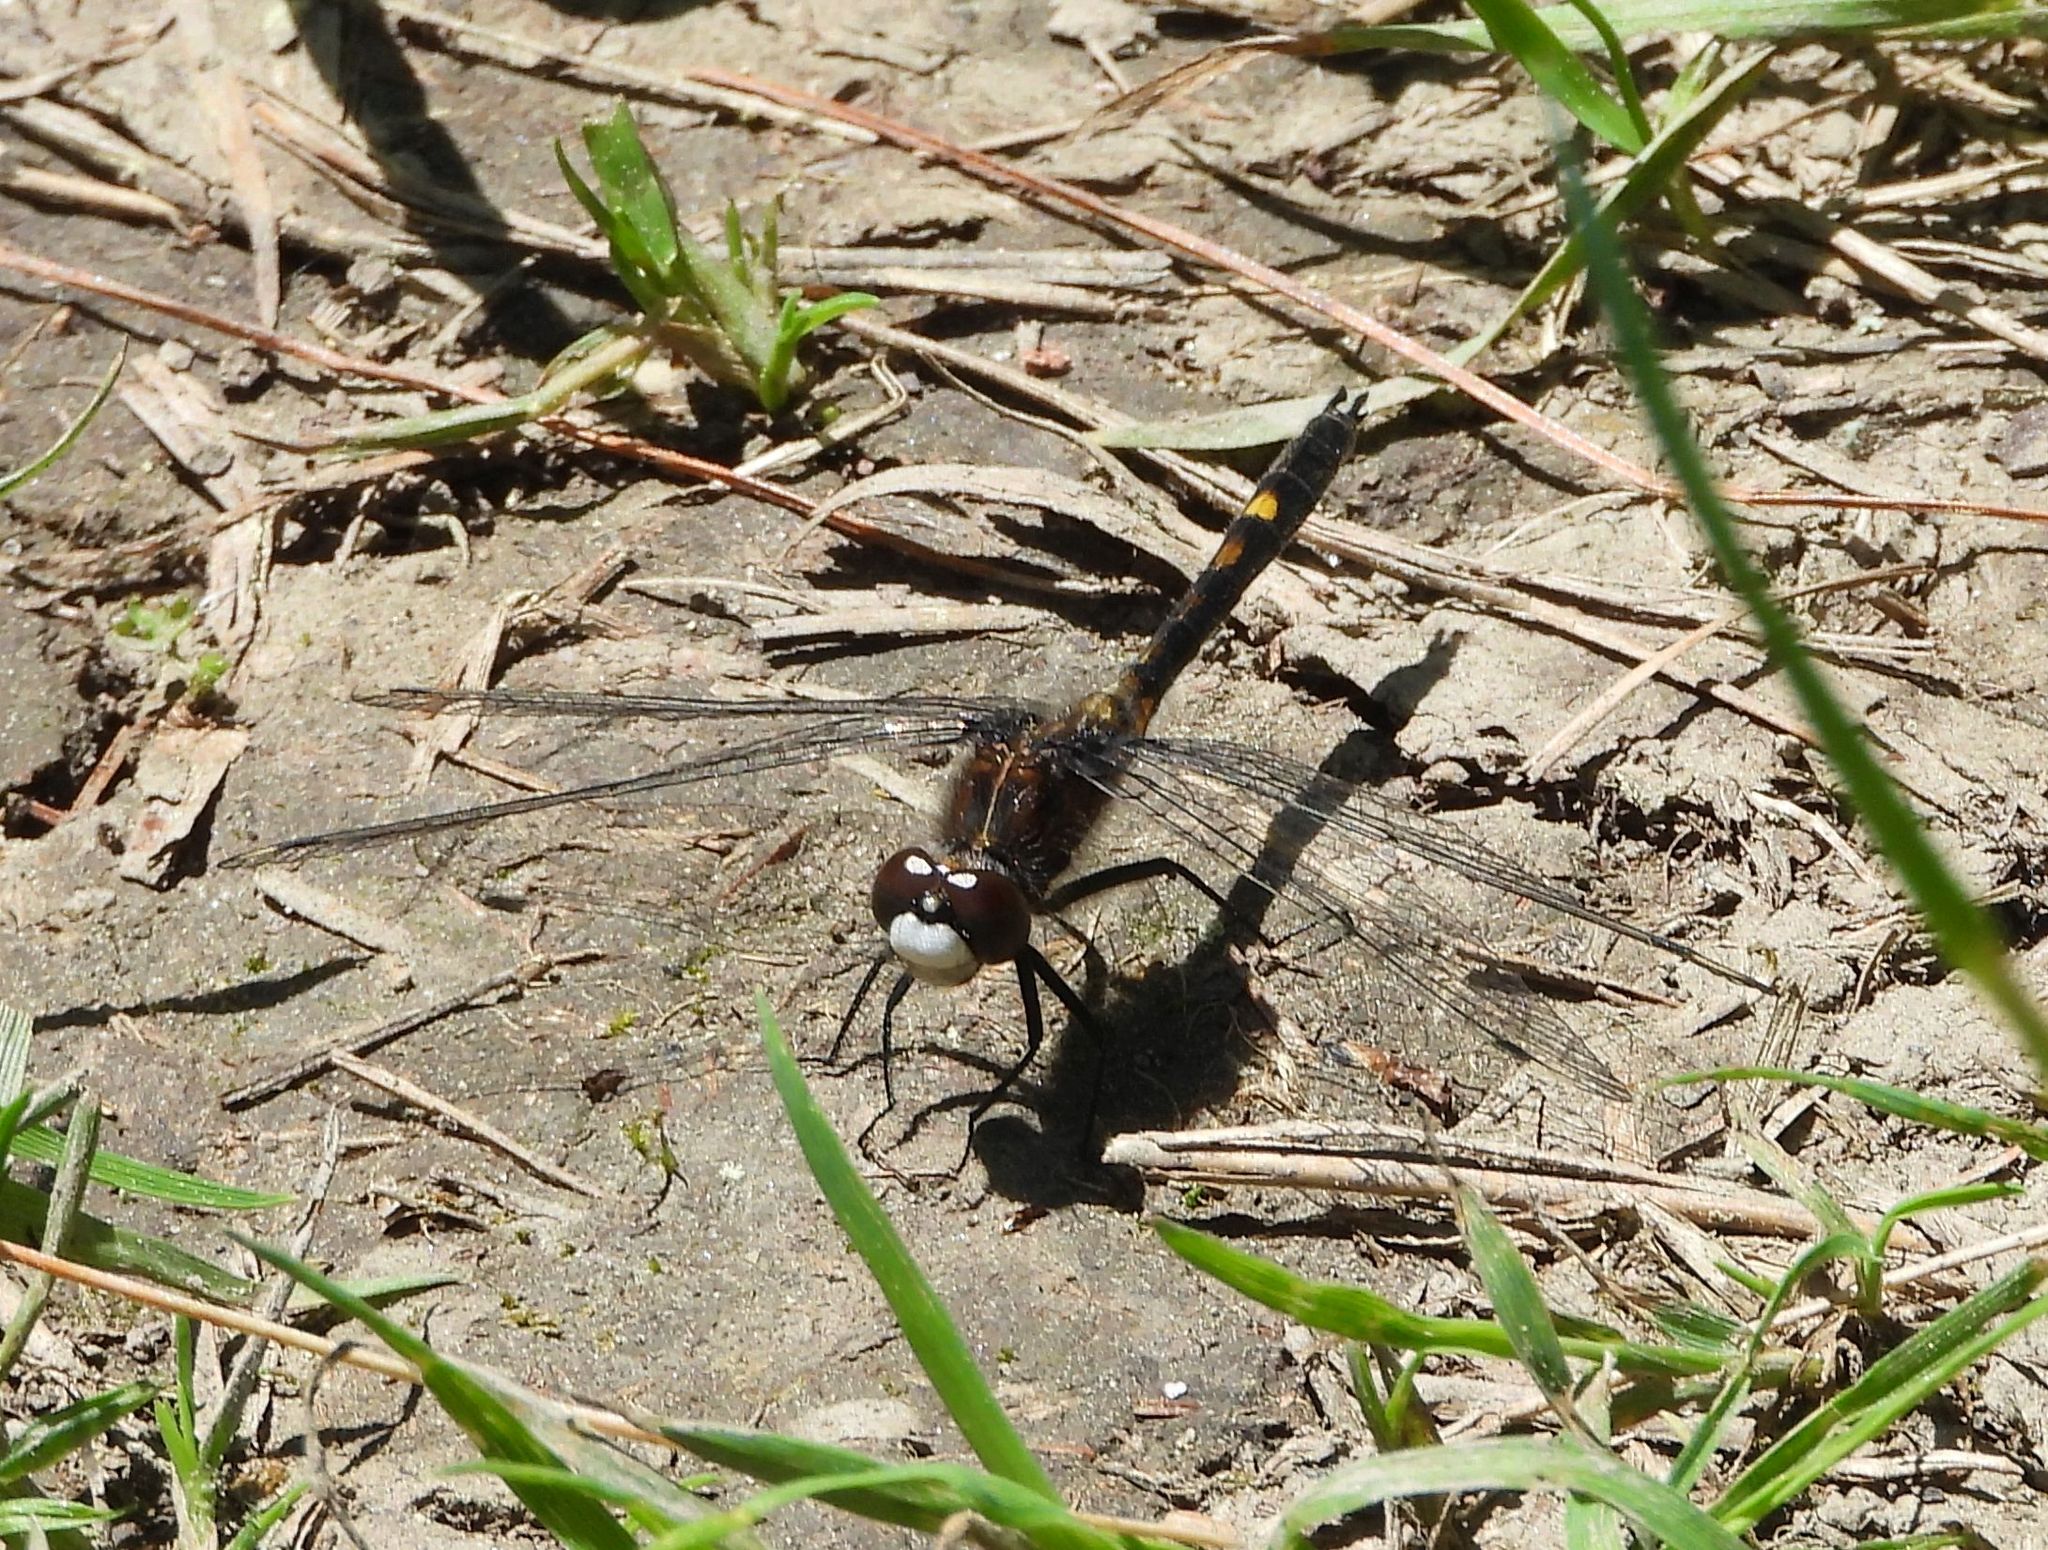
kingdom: Animalia
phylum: Arthropoda
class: Insecta
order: Odonata
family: Libellulidae
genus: Leucorrhinia
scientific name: Leucorrhinia intacta
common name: Dot-tailed whiteface
